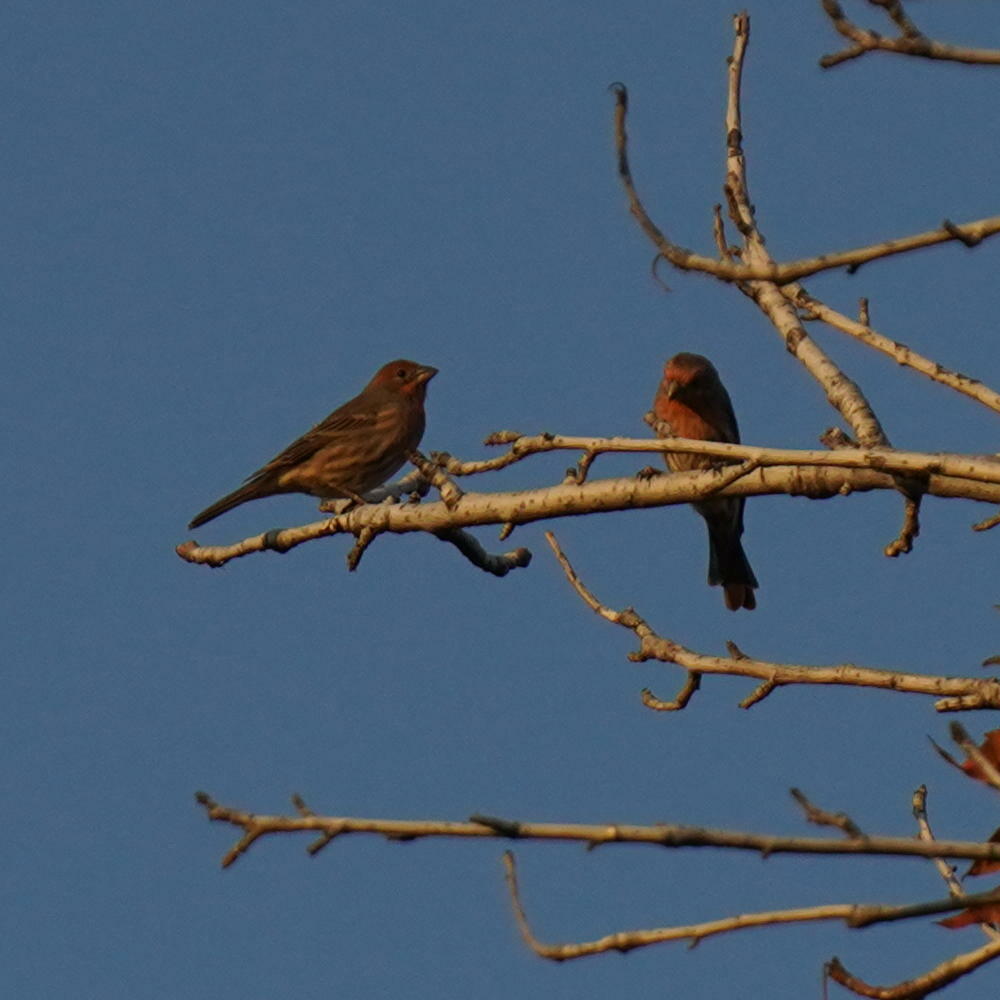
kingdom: Animalia
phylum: Chordata
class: Aves
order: Passeriformes
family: Fringillidae
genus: Haemorhous
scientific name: Haemorhous mexicanus
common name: House finch
